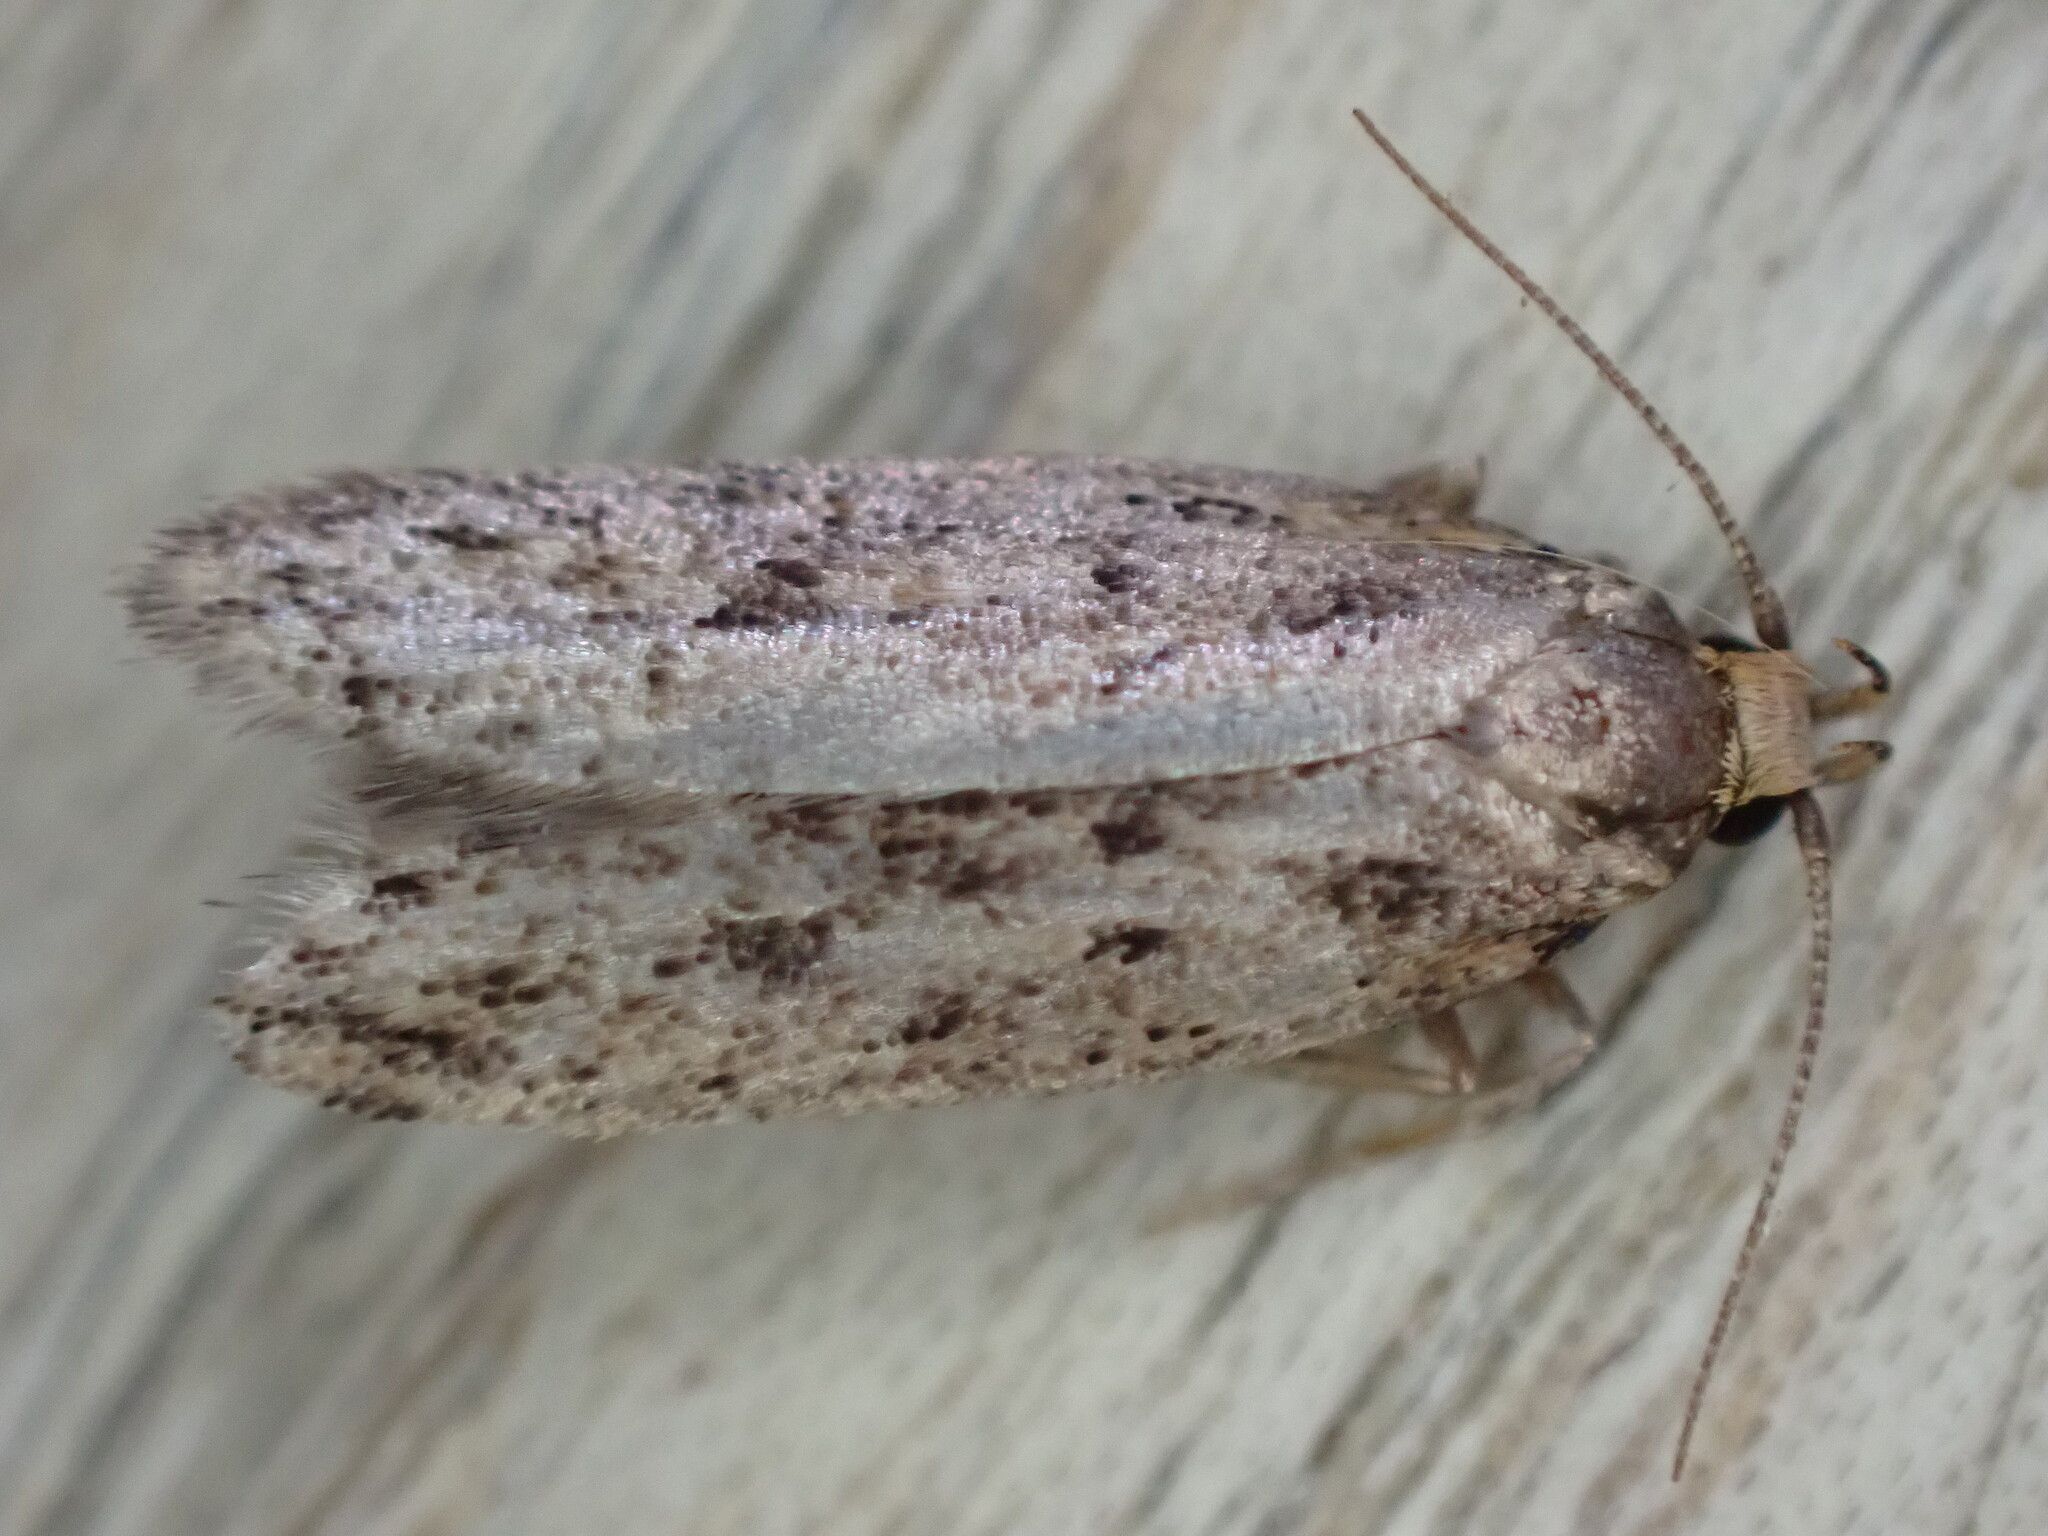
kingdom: Animalia
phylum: Arthropoda
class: Insecta
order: Lepidoptera
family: Oecophoridae
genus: Hofmannophila
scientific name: Hofmannophila pseudospretella
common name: Brown house moth
